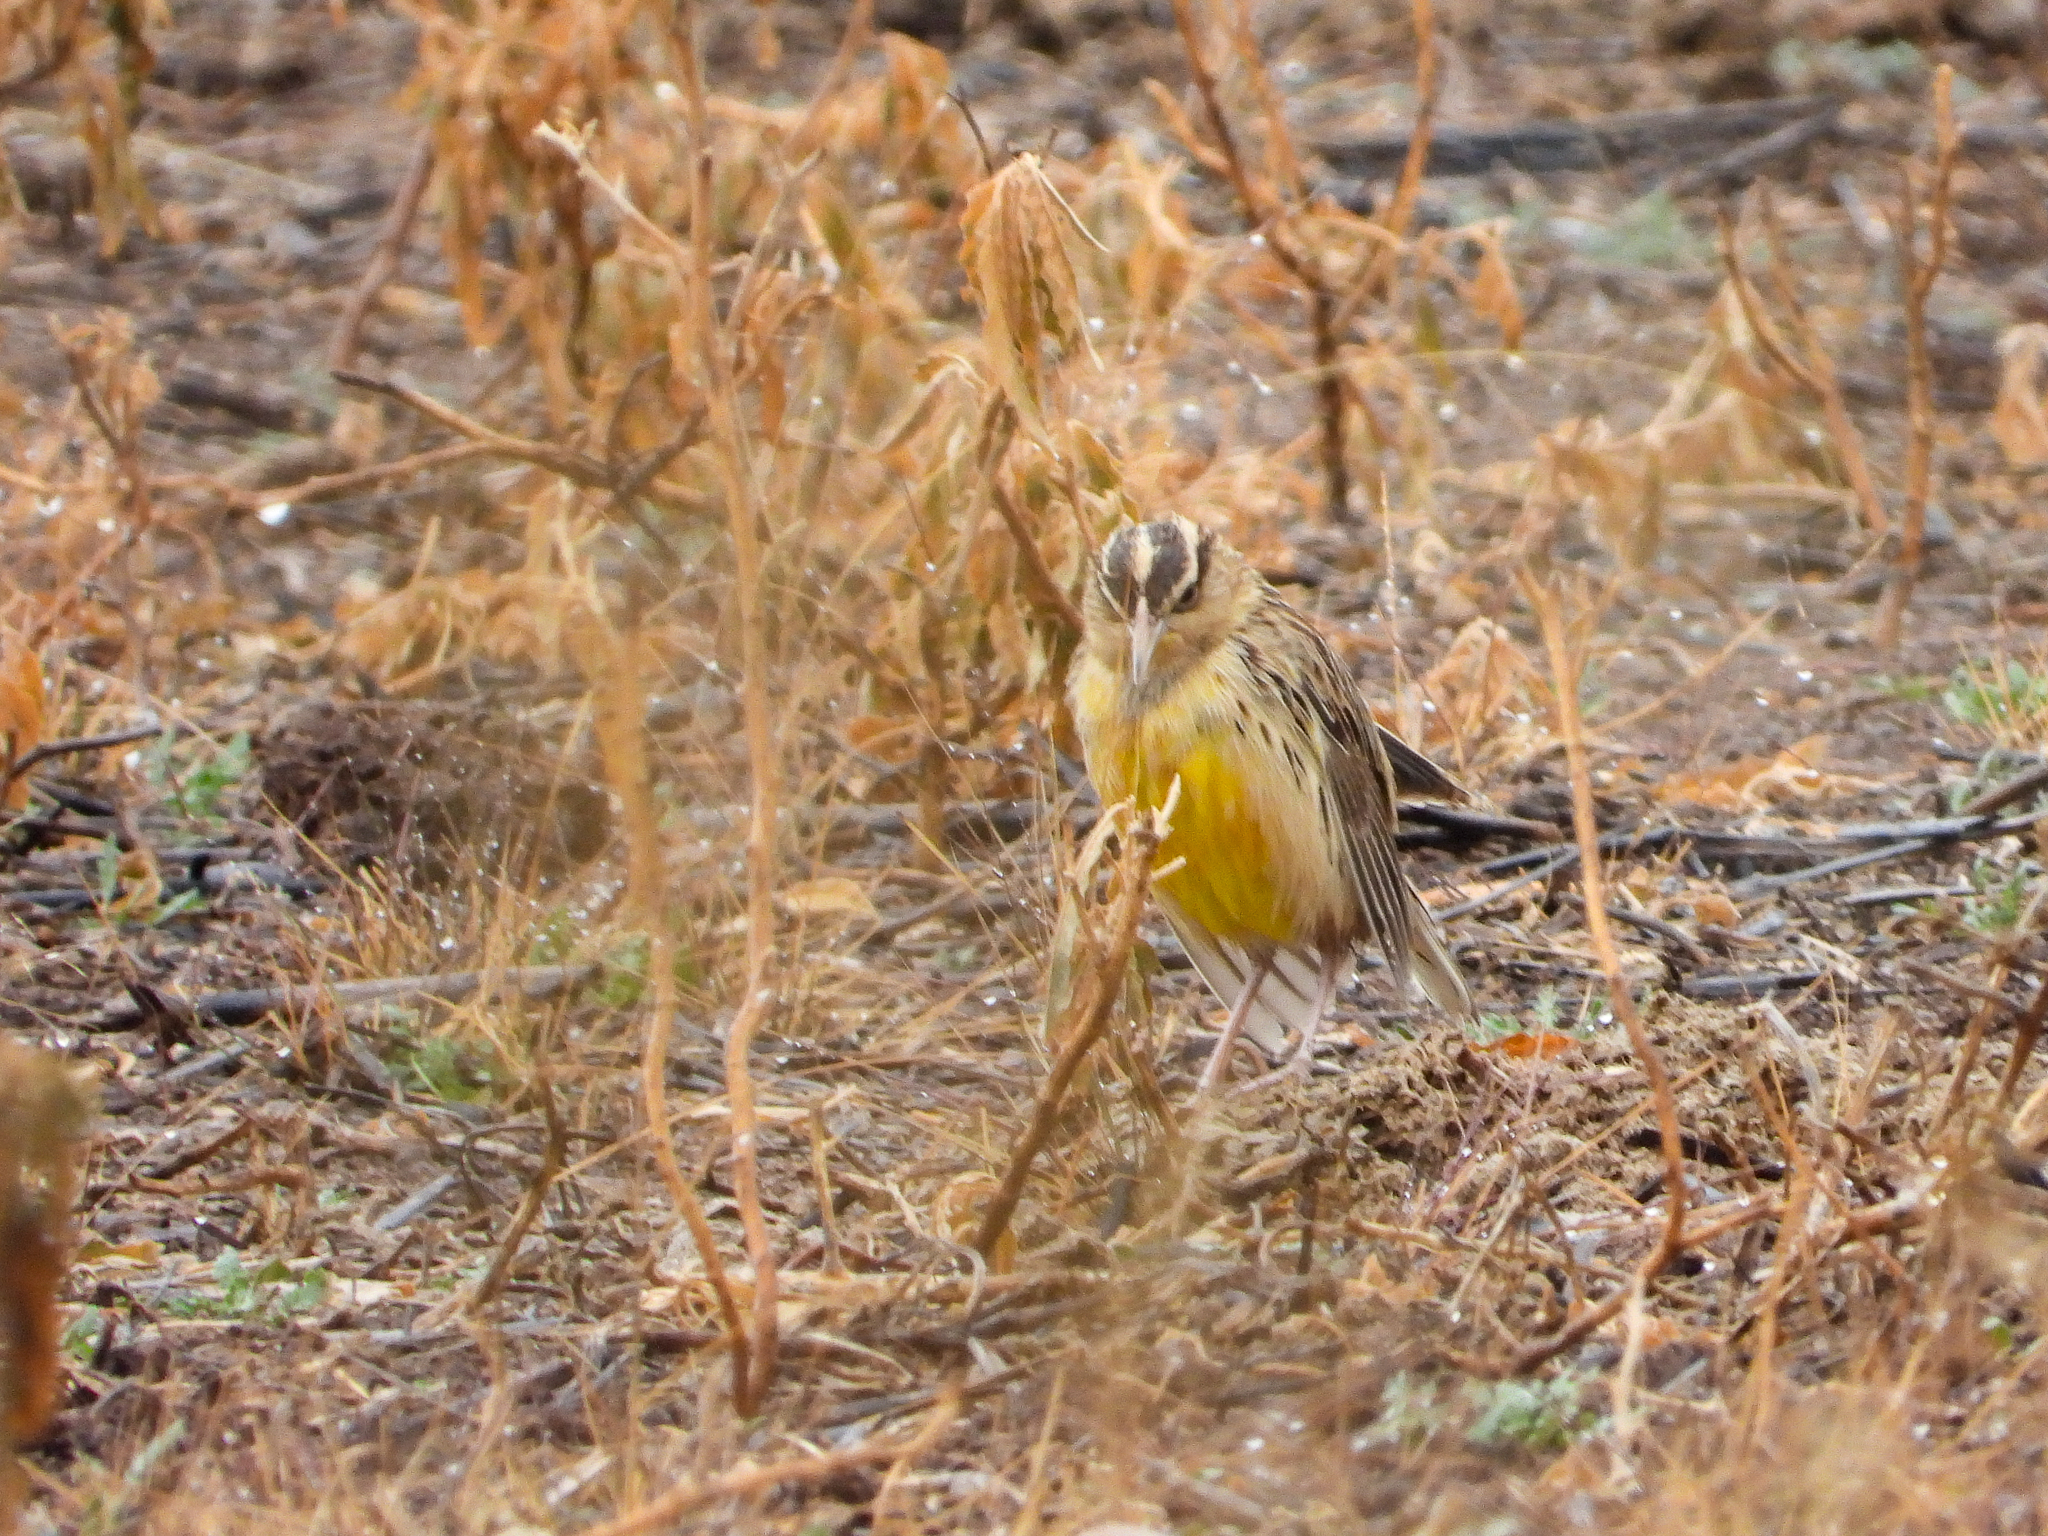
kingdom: Animalia
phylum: Chordata
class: Aves
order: Passeriformes
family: Icteridae
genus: Sturnella
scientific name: Sturnella lilianae
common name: Lilian's meadowlark
